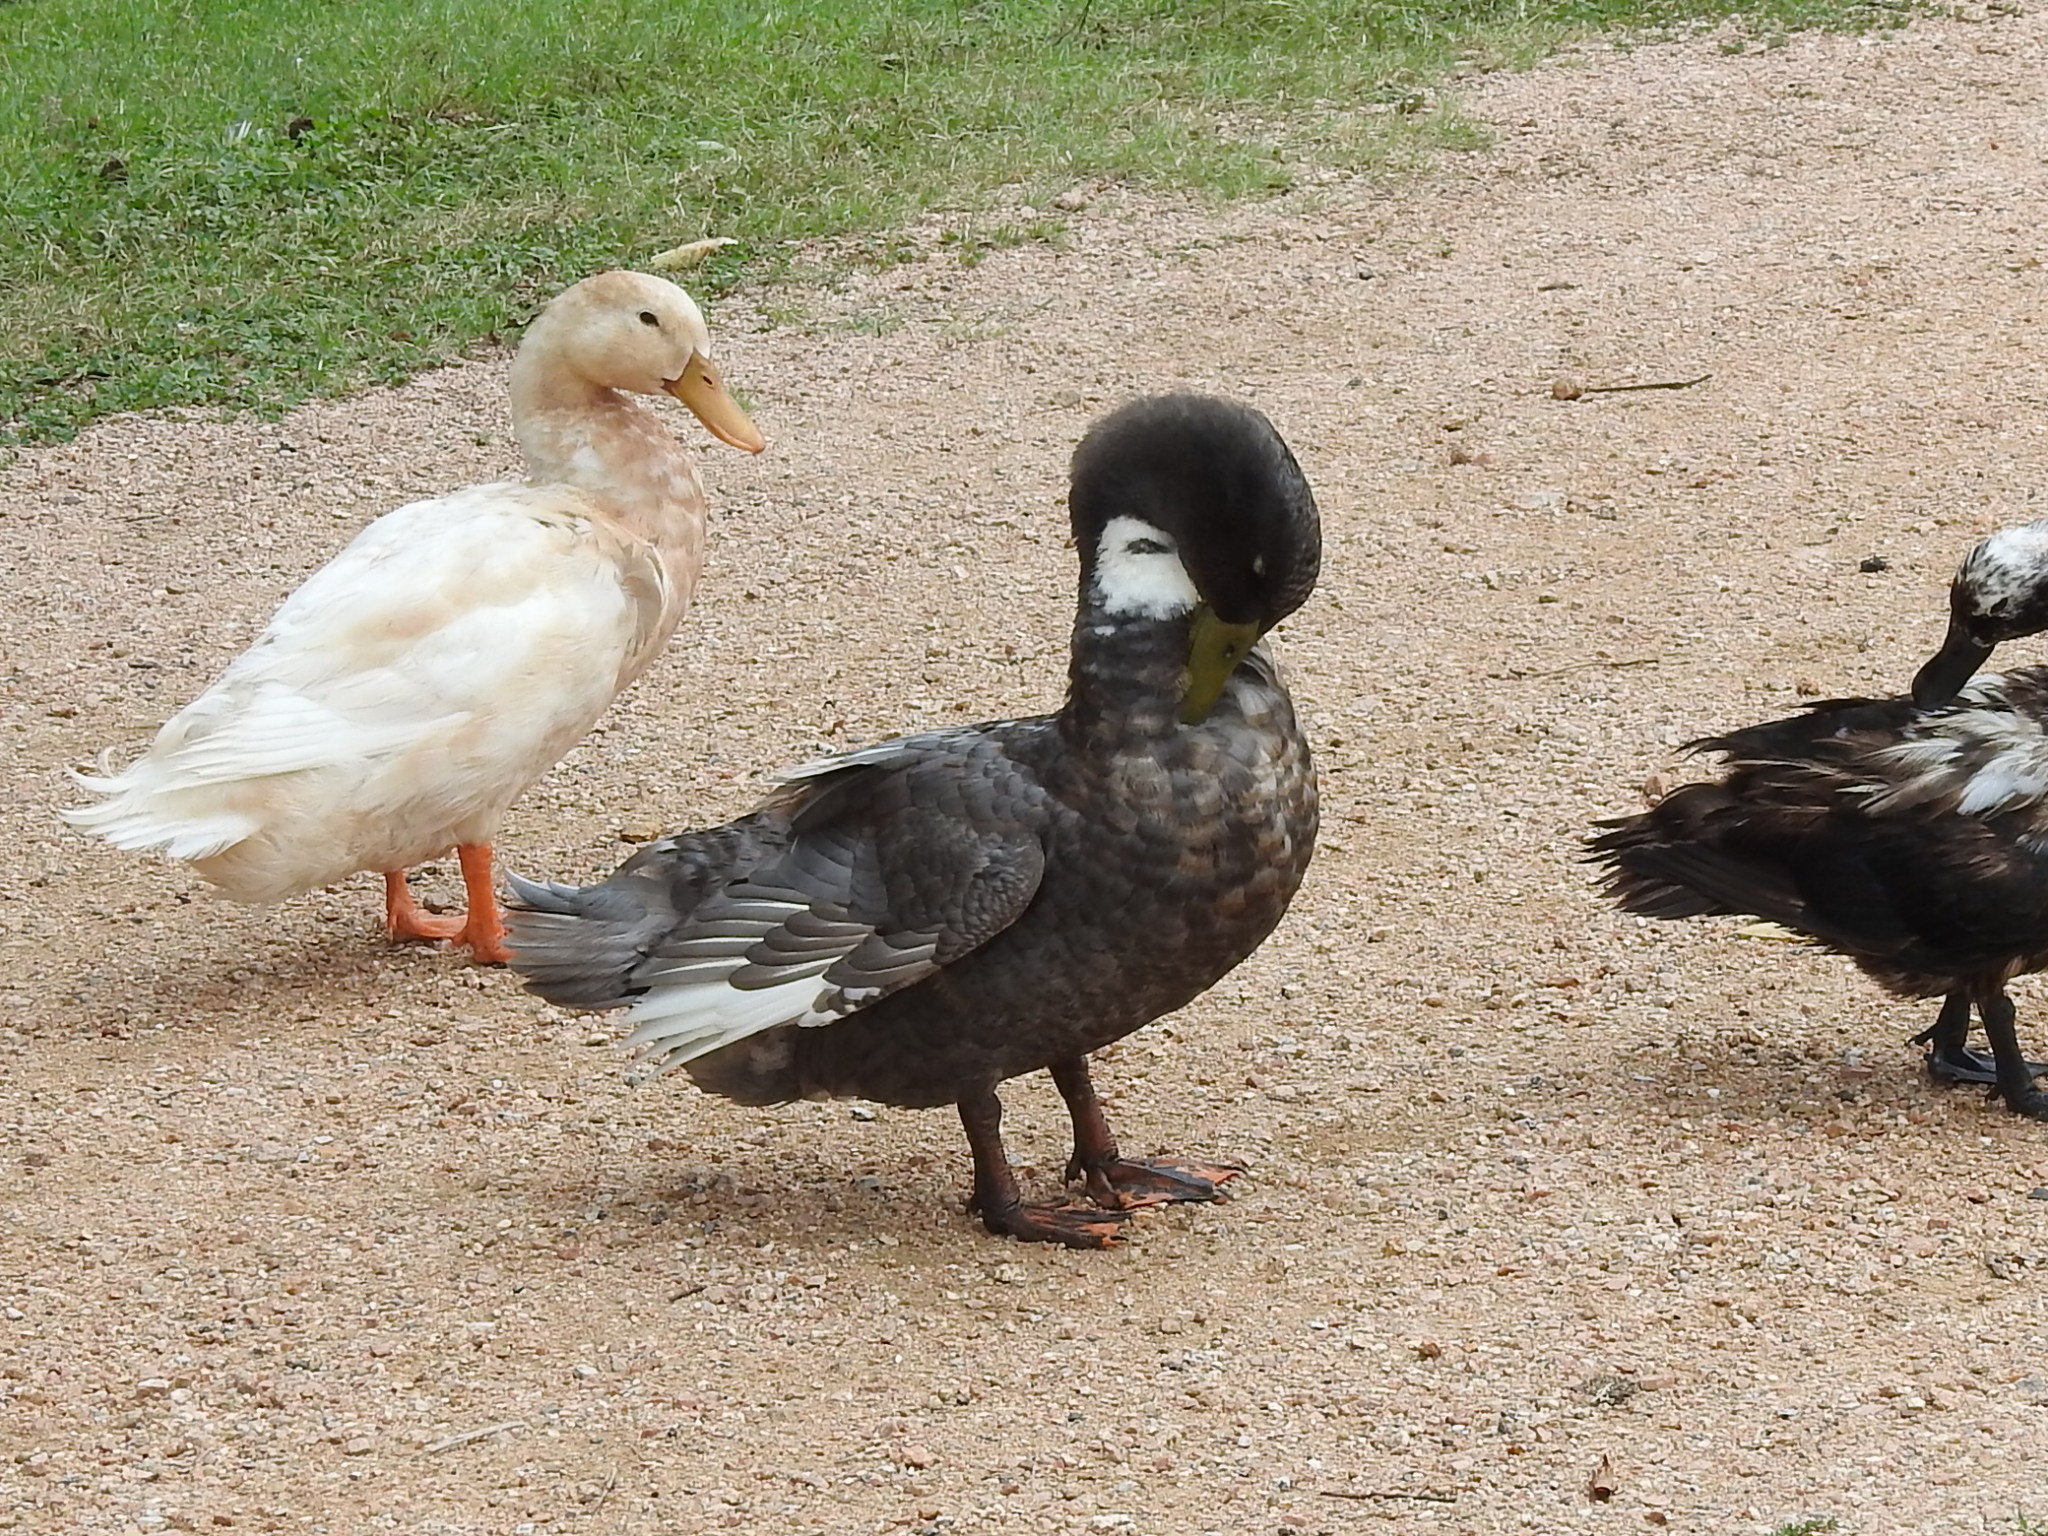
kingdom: Animalia
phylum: Chordata
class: Aves
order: Anseriformes
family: Anatidae
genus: Anas
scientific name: Anas platyrhynchos
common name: Mallard
